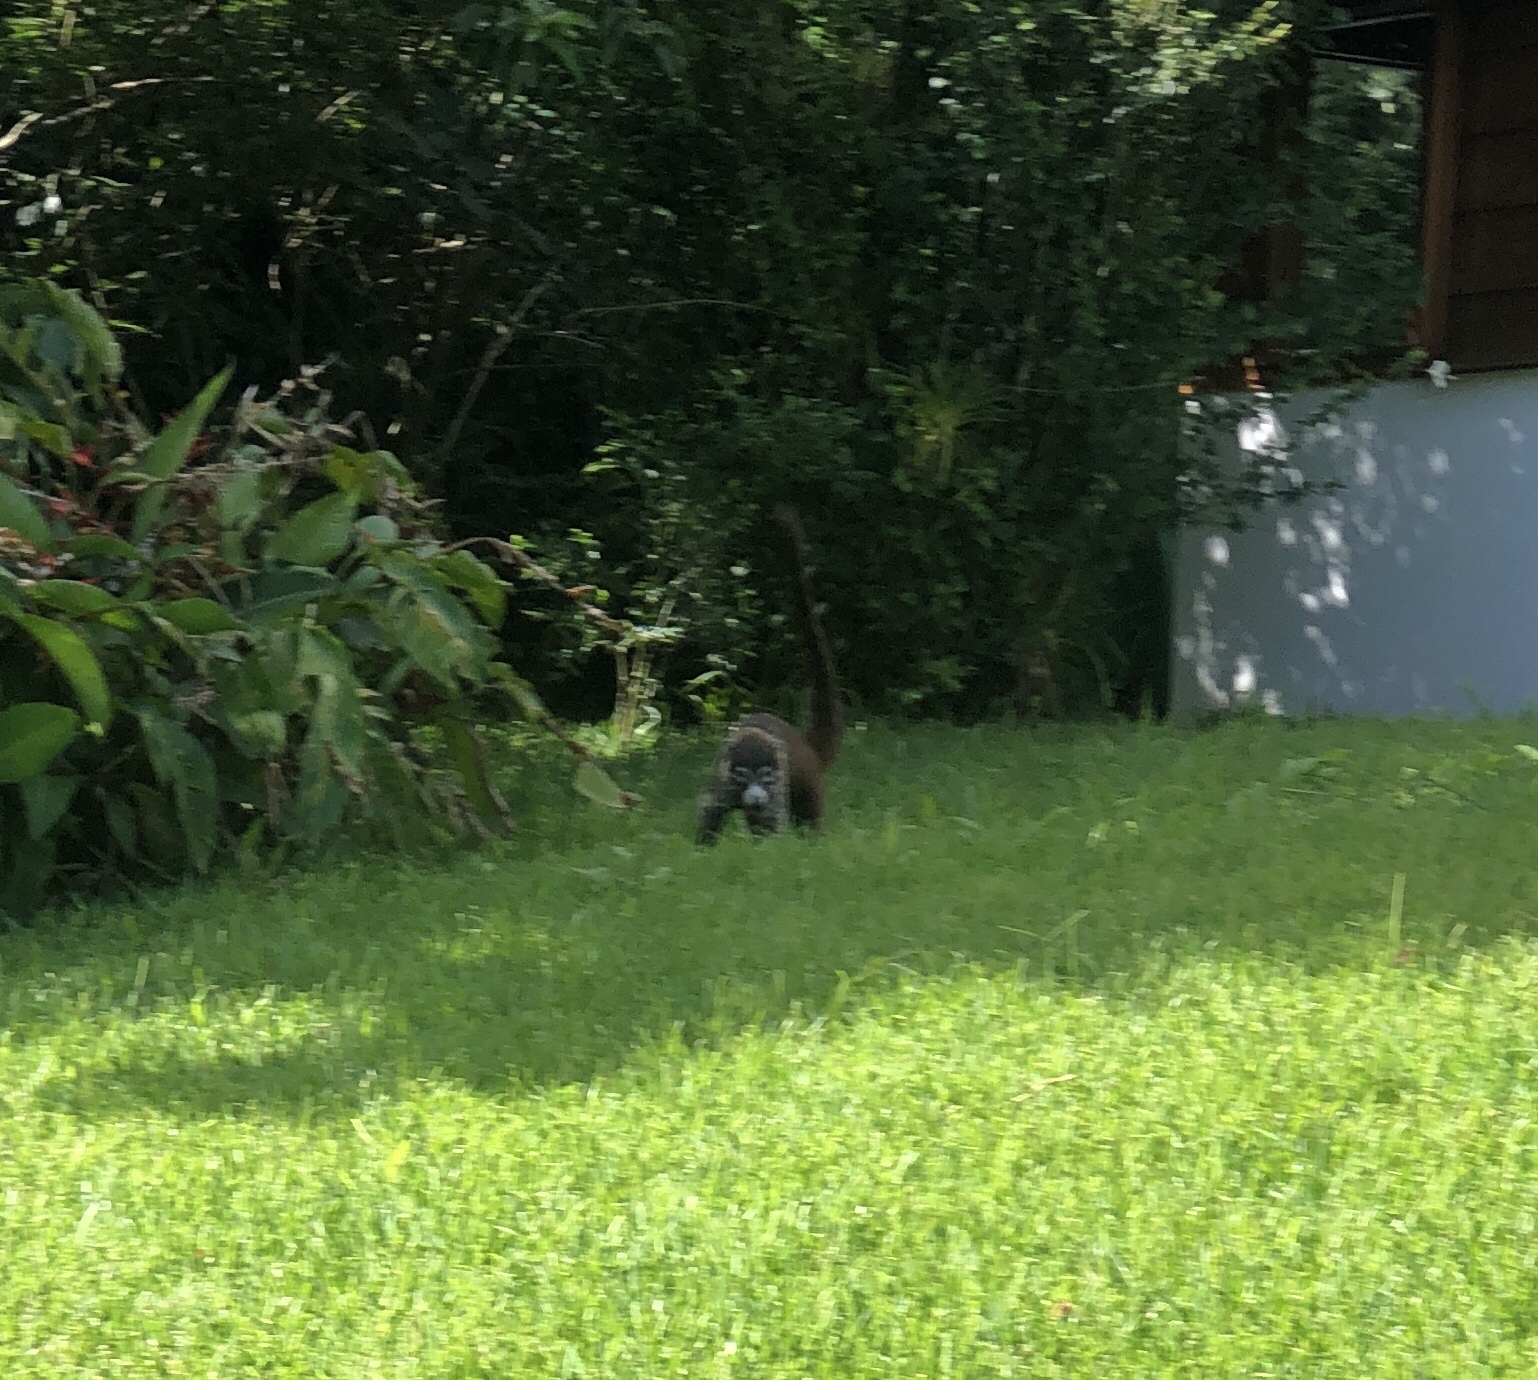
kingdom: Animalia
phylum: Chordata
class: Mammalia
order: Carnivora
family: Procyonidae
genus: Nasua
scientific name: Nasua narica
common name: White-nosed coati
